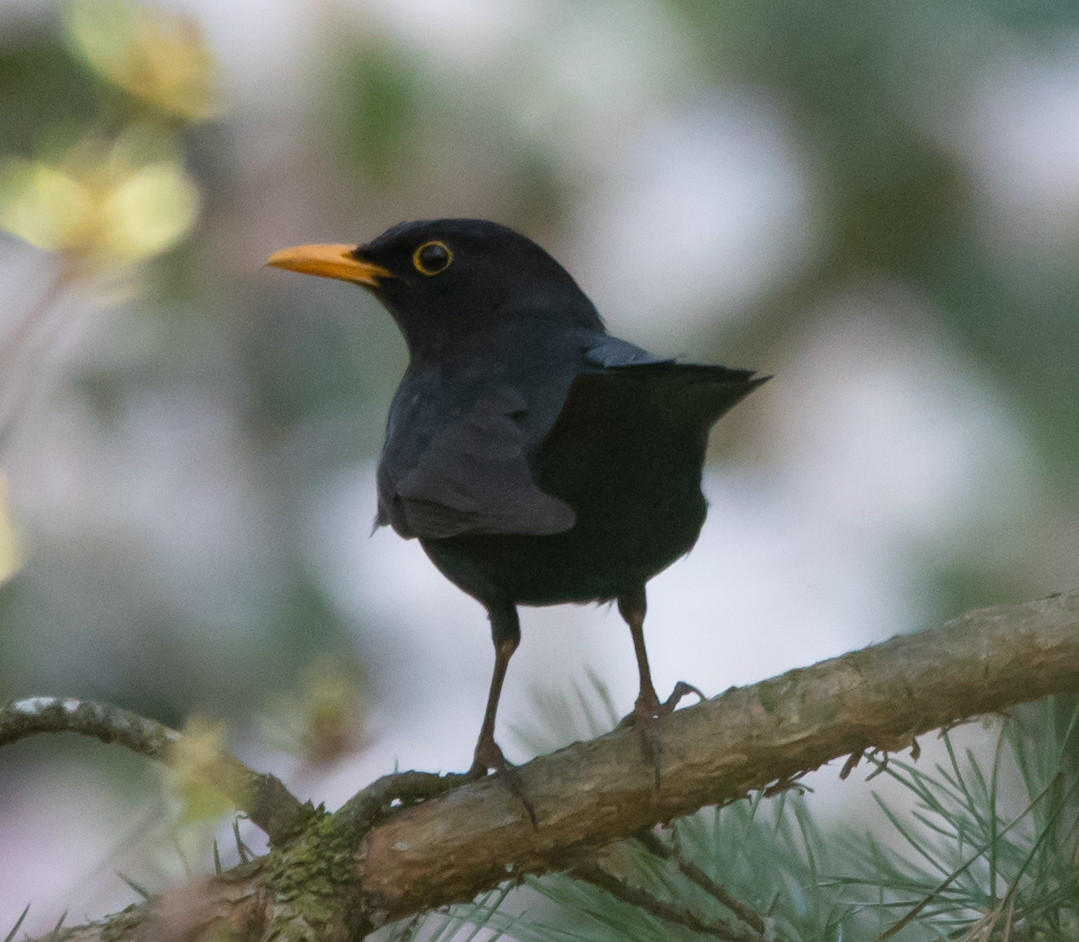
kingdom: Animalia
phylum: Chordata
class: Aves
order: Passeriformes
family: Turdidae
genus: Turdus
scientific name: Turdus merula
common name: Common blackbird
